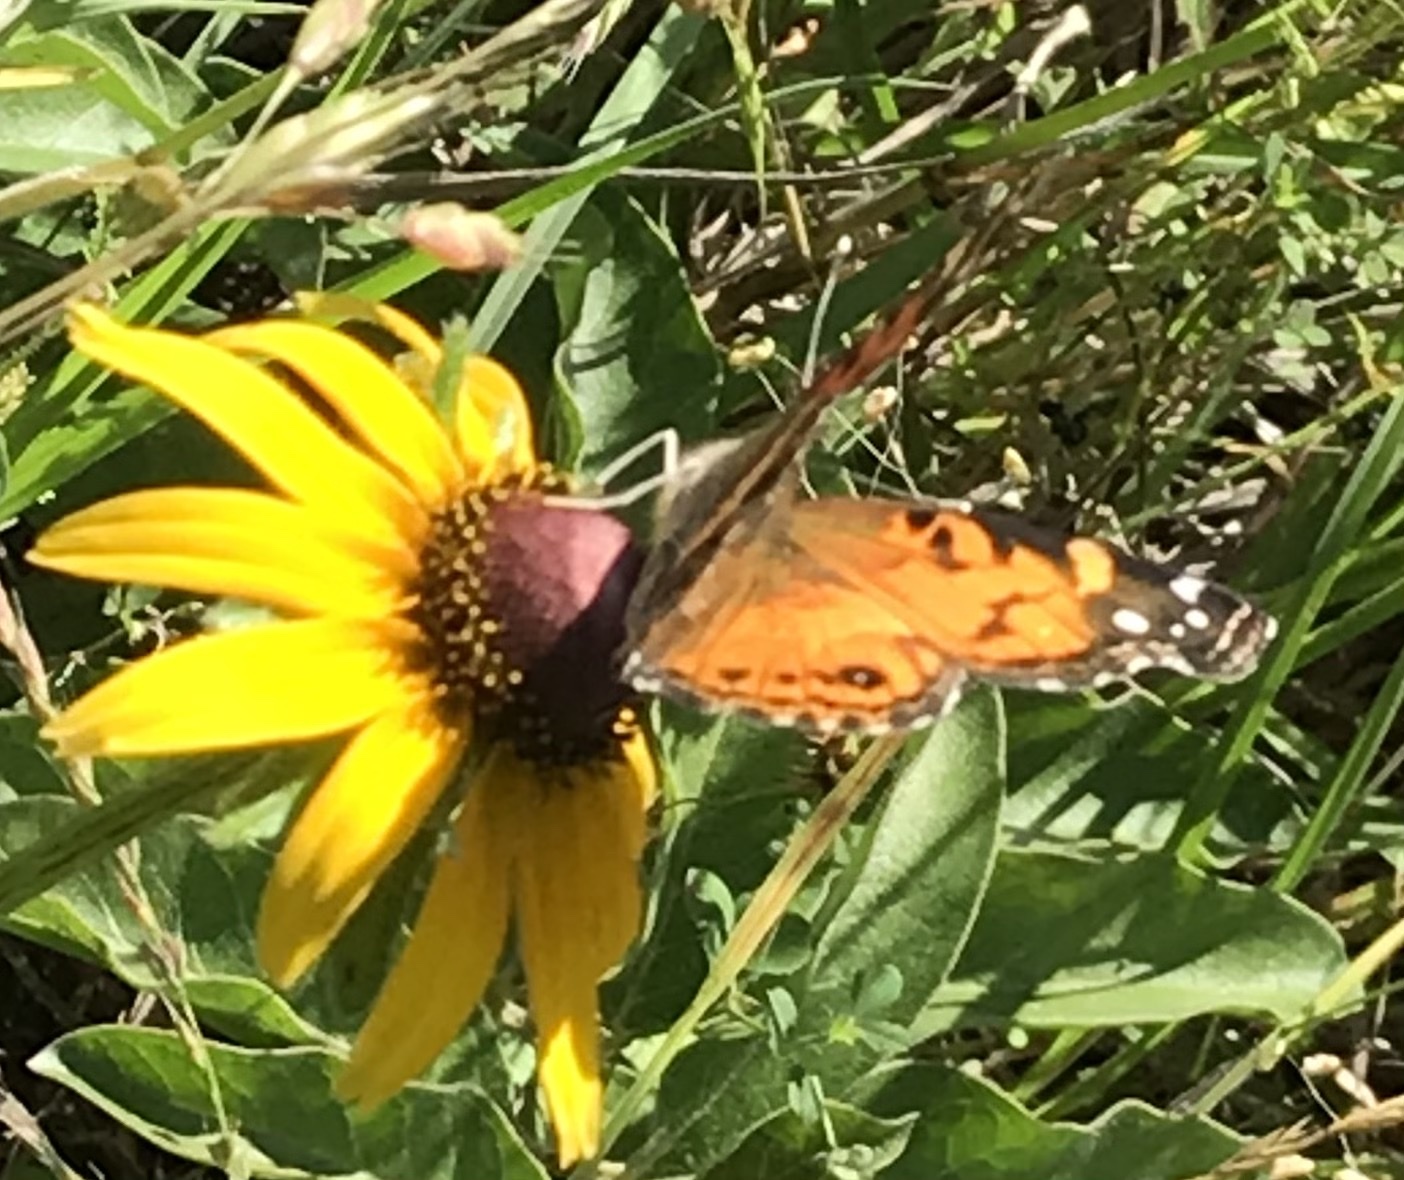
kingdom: Animalia
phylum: Arthropoda
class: Insecta
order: Lepidoptera
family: Nymphalidae
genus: Vanessa
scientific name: Vanessa virginiensis
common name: American lady
